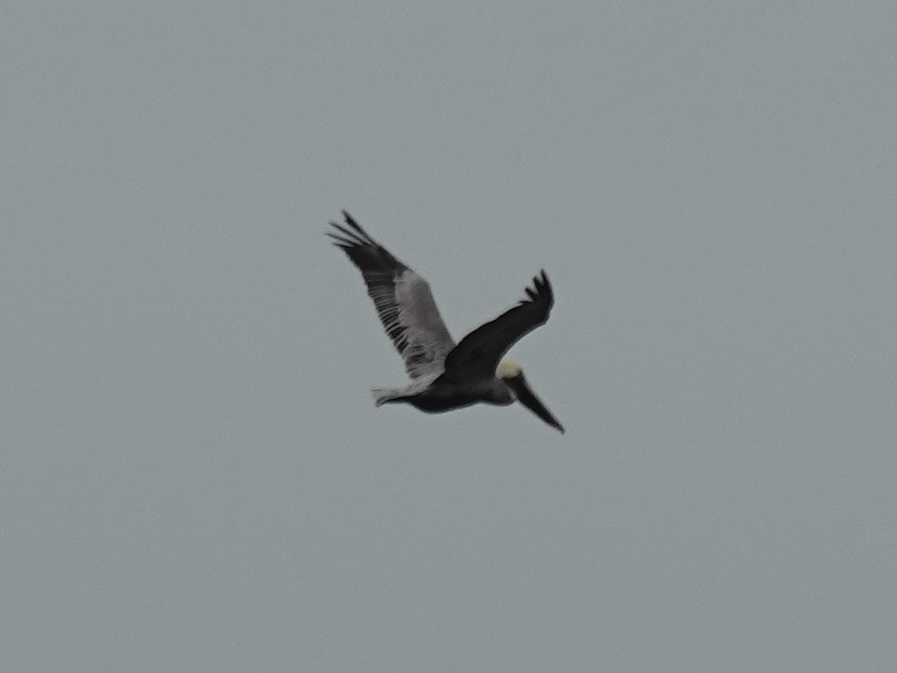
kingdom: Animalia
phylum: Chordata
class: Aves
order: Pelecaniformes
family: Pelecanidae
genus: Pelecanus
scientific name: Pelecanus occidentalis
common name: Brown pelican
